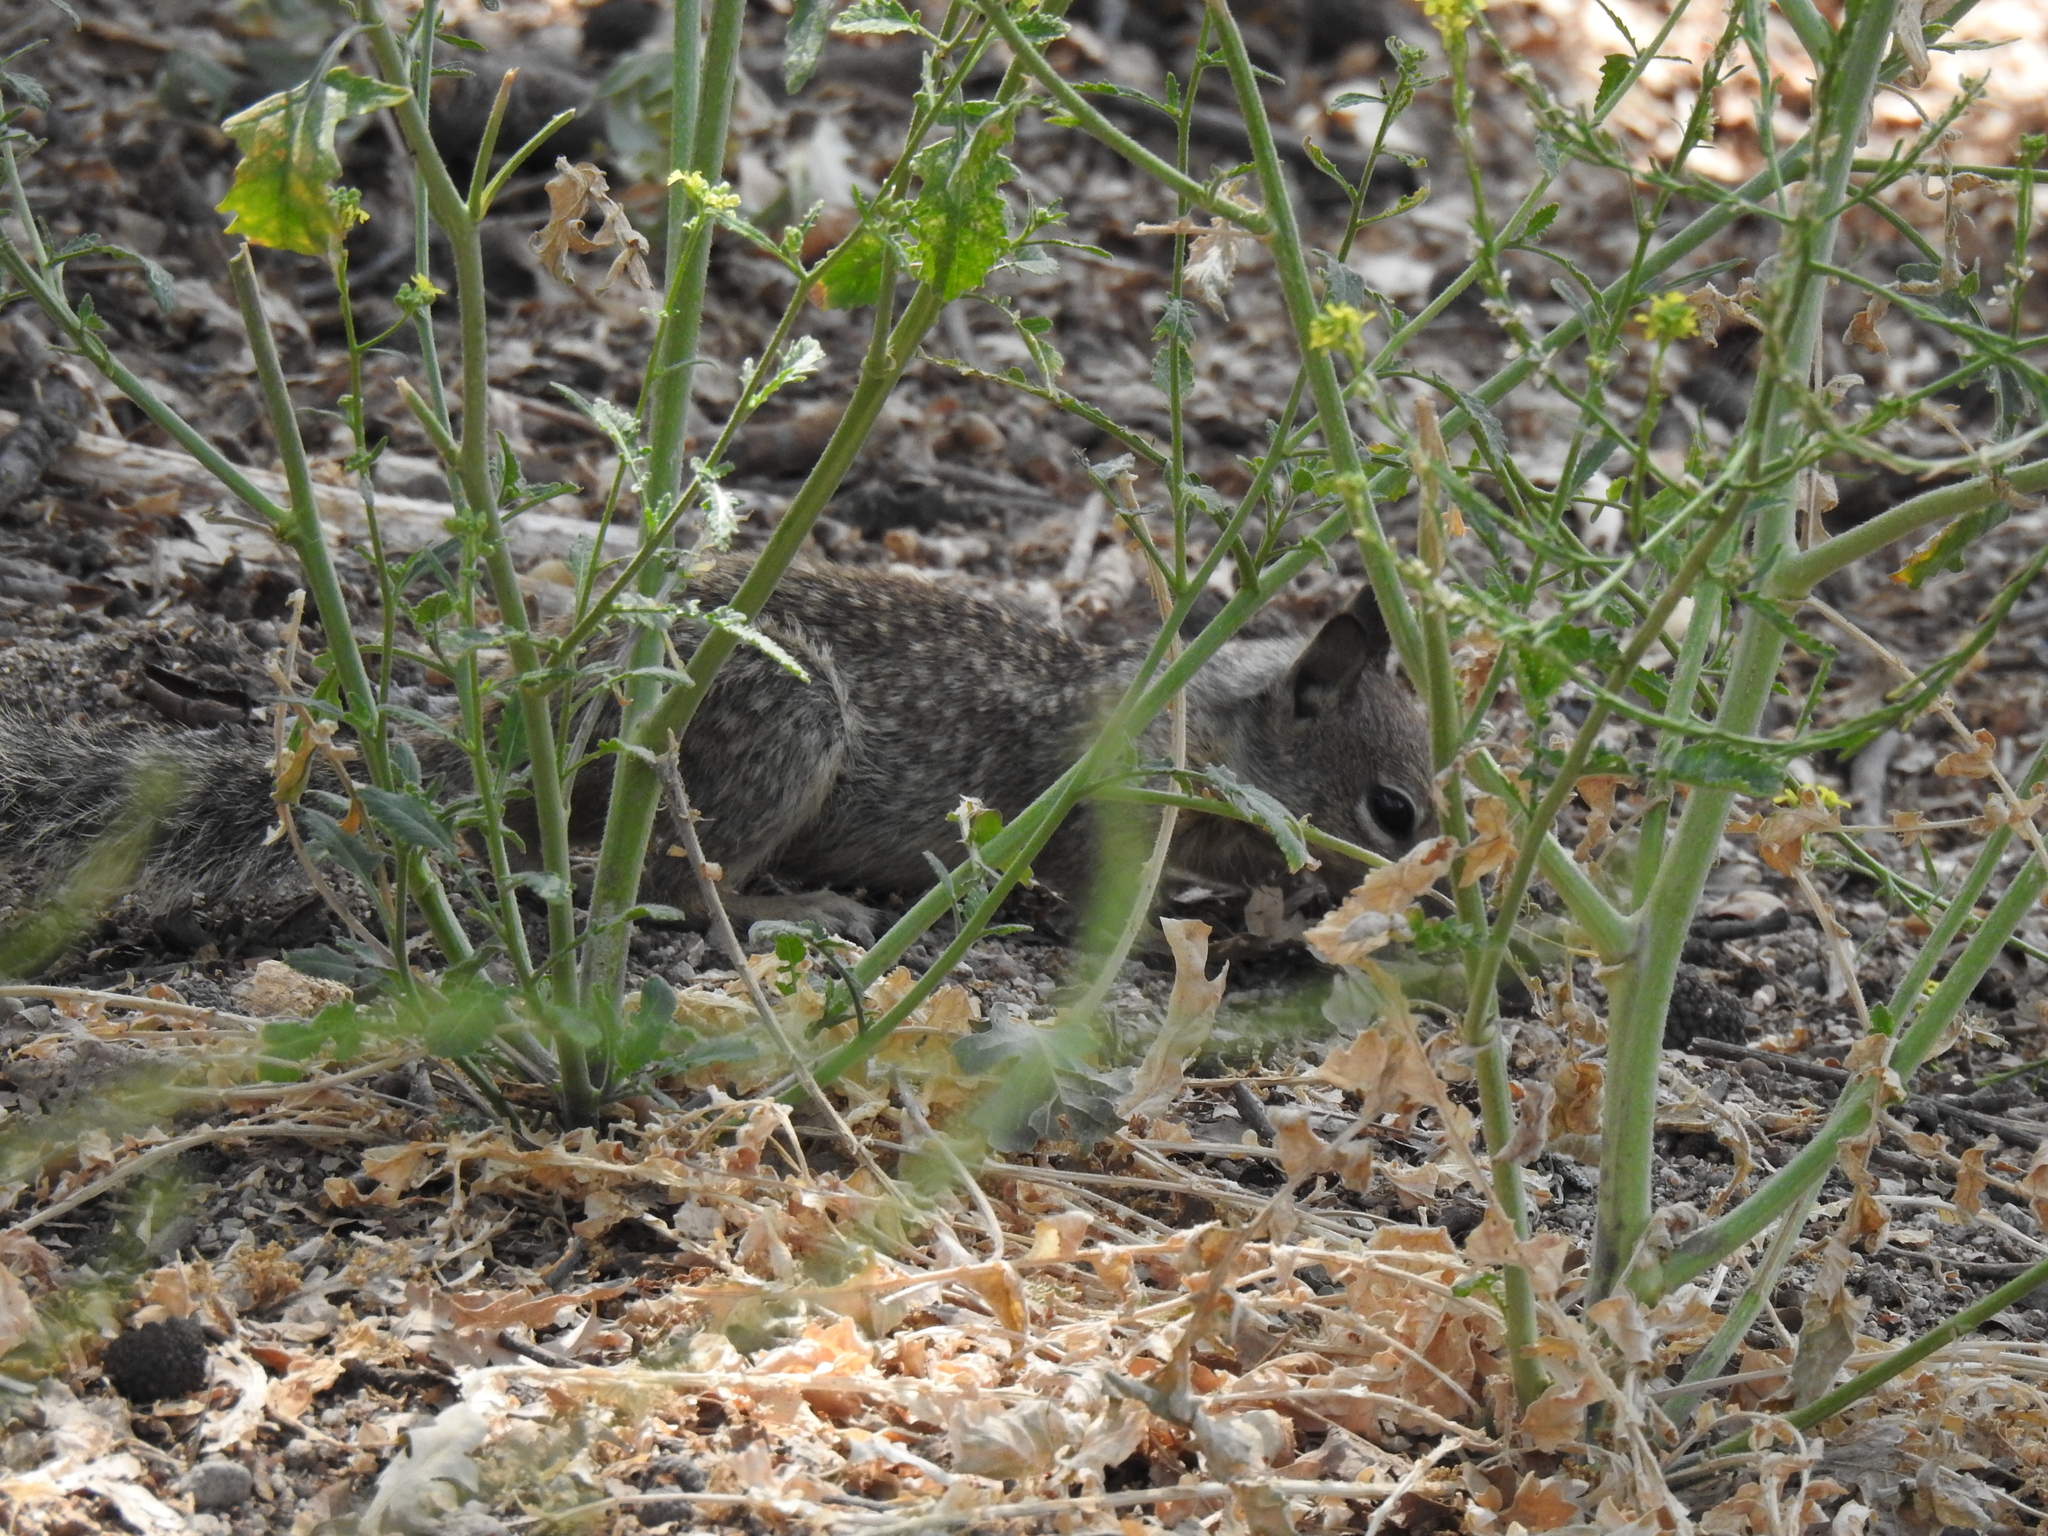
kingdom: Animalia
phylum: Chordata
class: Mammalia
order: Rodentia
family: Sciuridae
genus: Otospermophilus
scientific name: Otospermophilus beecheyi
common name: California ground squirrel
